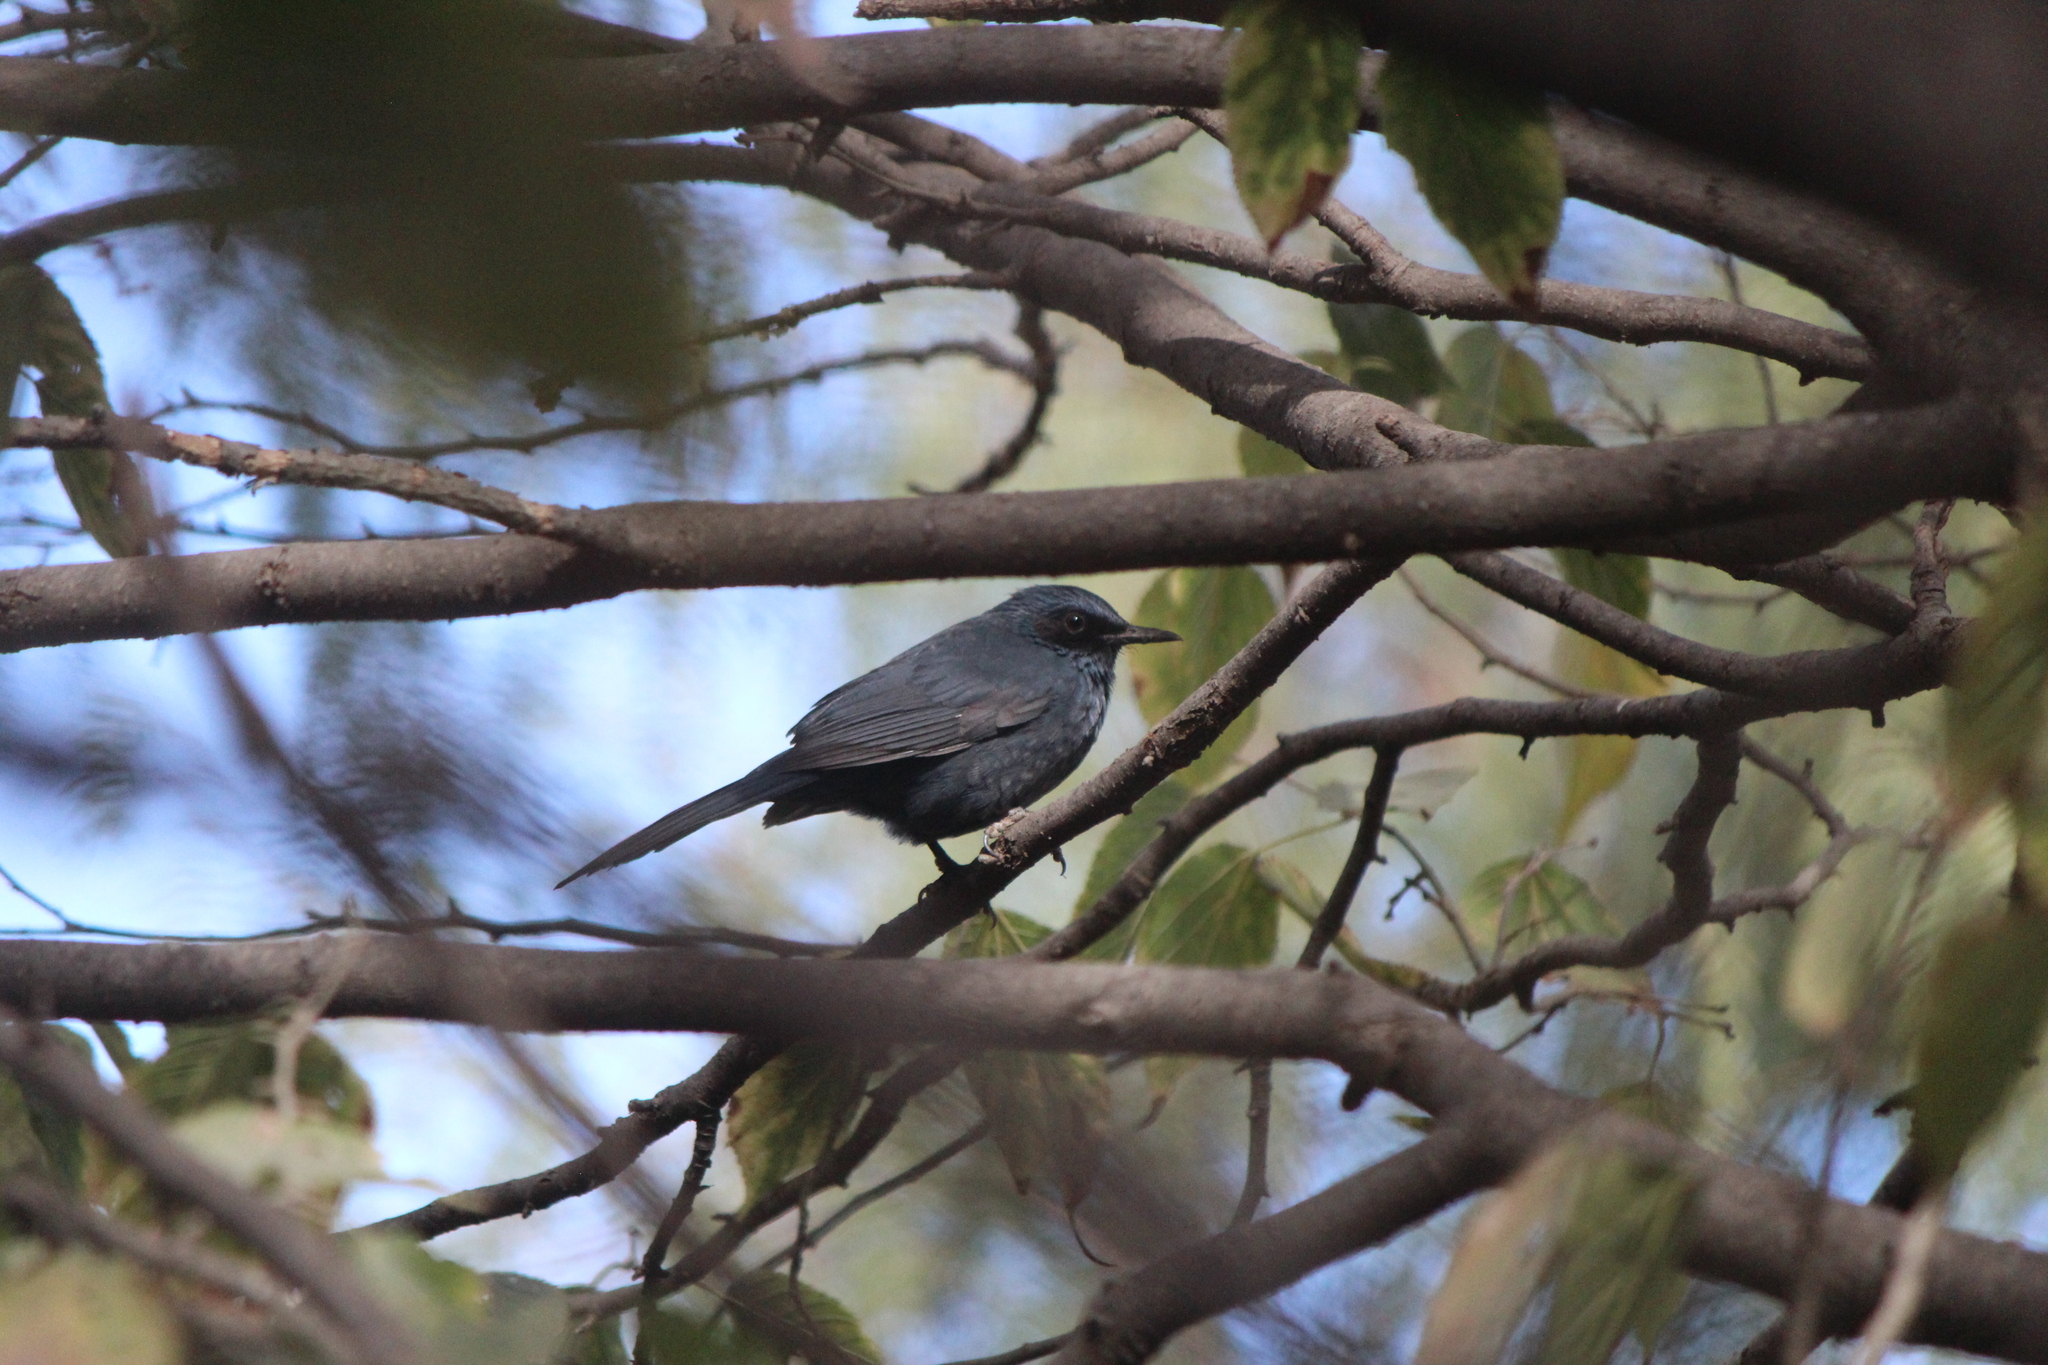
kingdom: Animalia
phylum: Chordata
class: Aves
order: Passeriformes
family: Mimidae
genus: Melanotis
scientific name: Melanotis caerulescens
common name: Blue mockingbird
